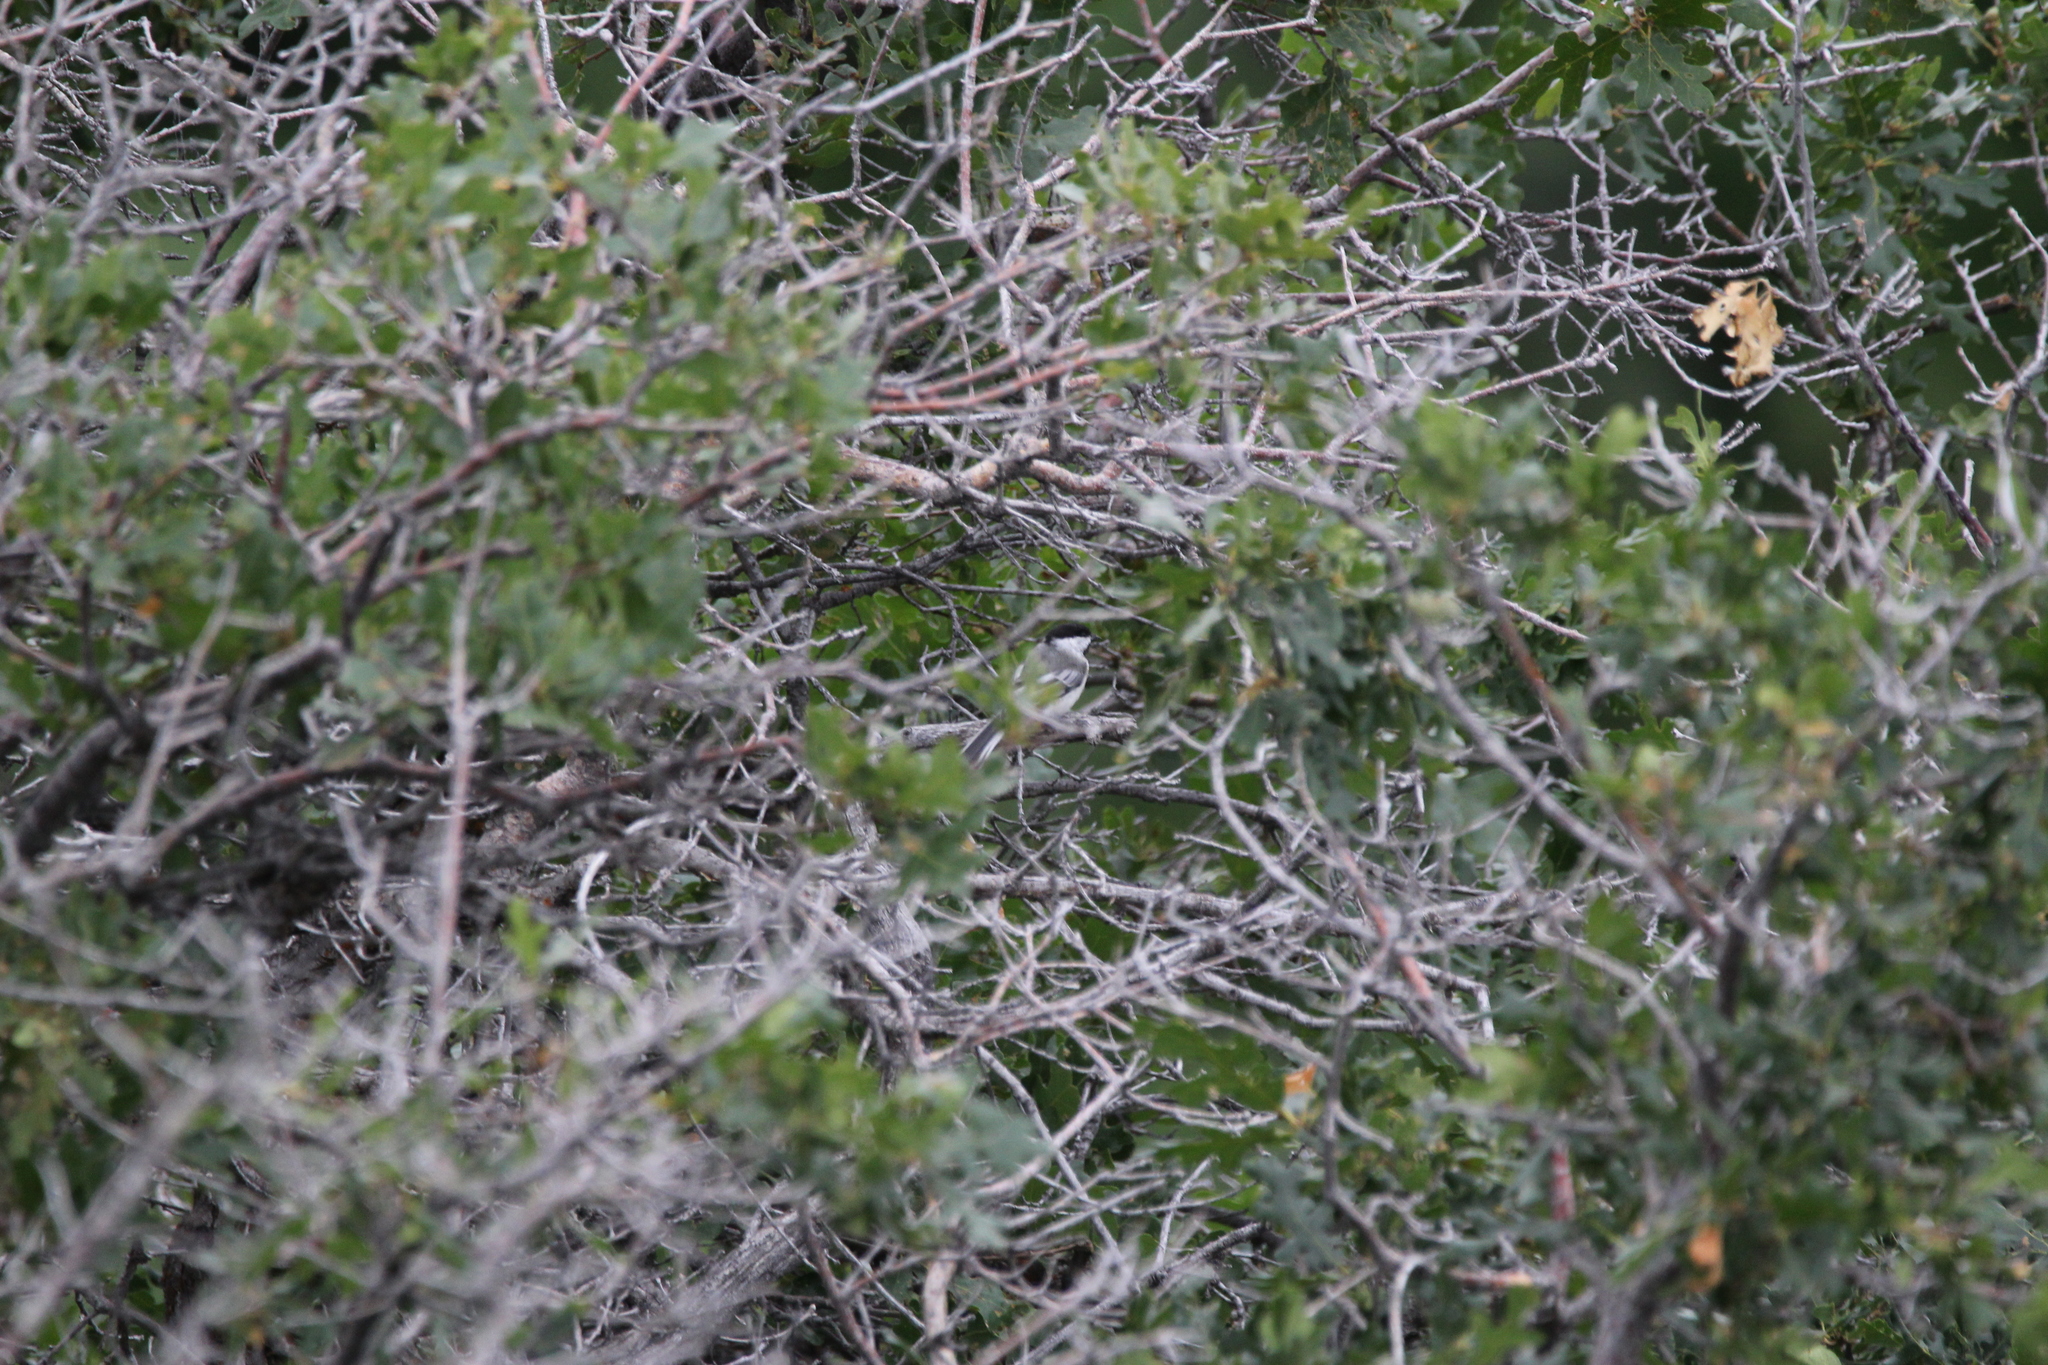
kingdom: Animalia
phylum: Chordata
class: Aves
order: Passeriformes
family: Paridae
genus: Poecile
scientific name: Poecile atricapillus
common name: Black-capped chickadee
